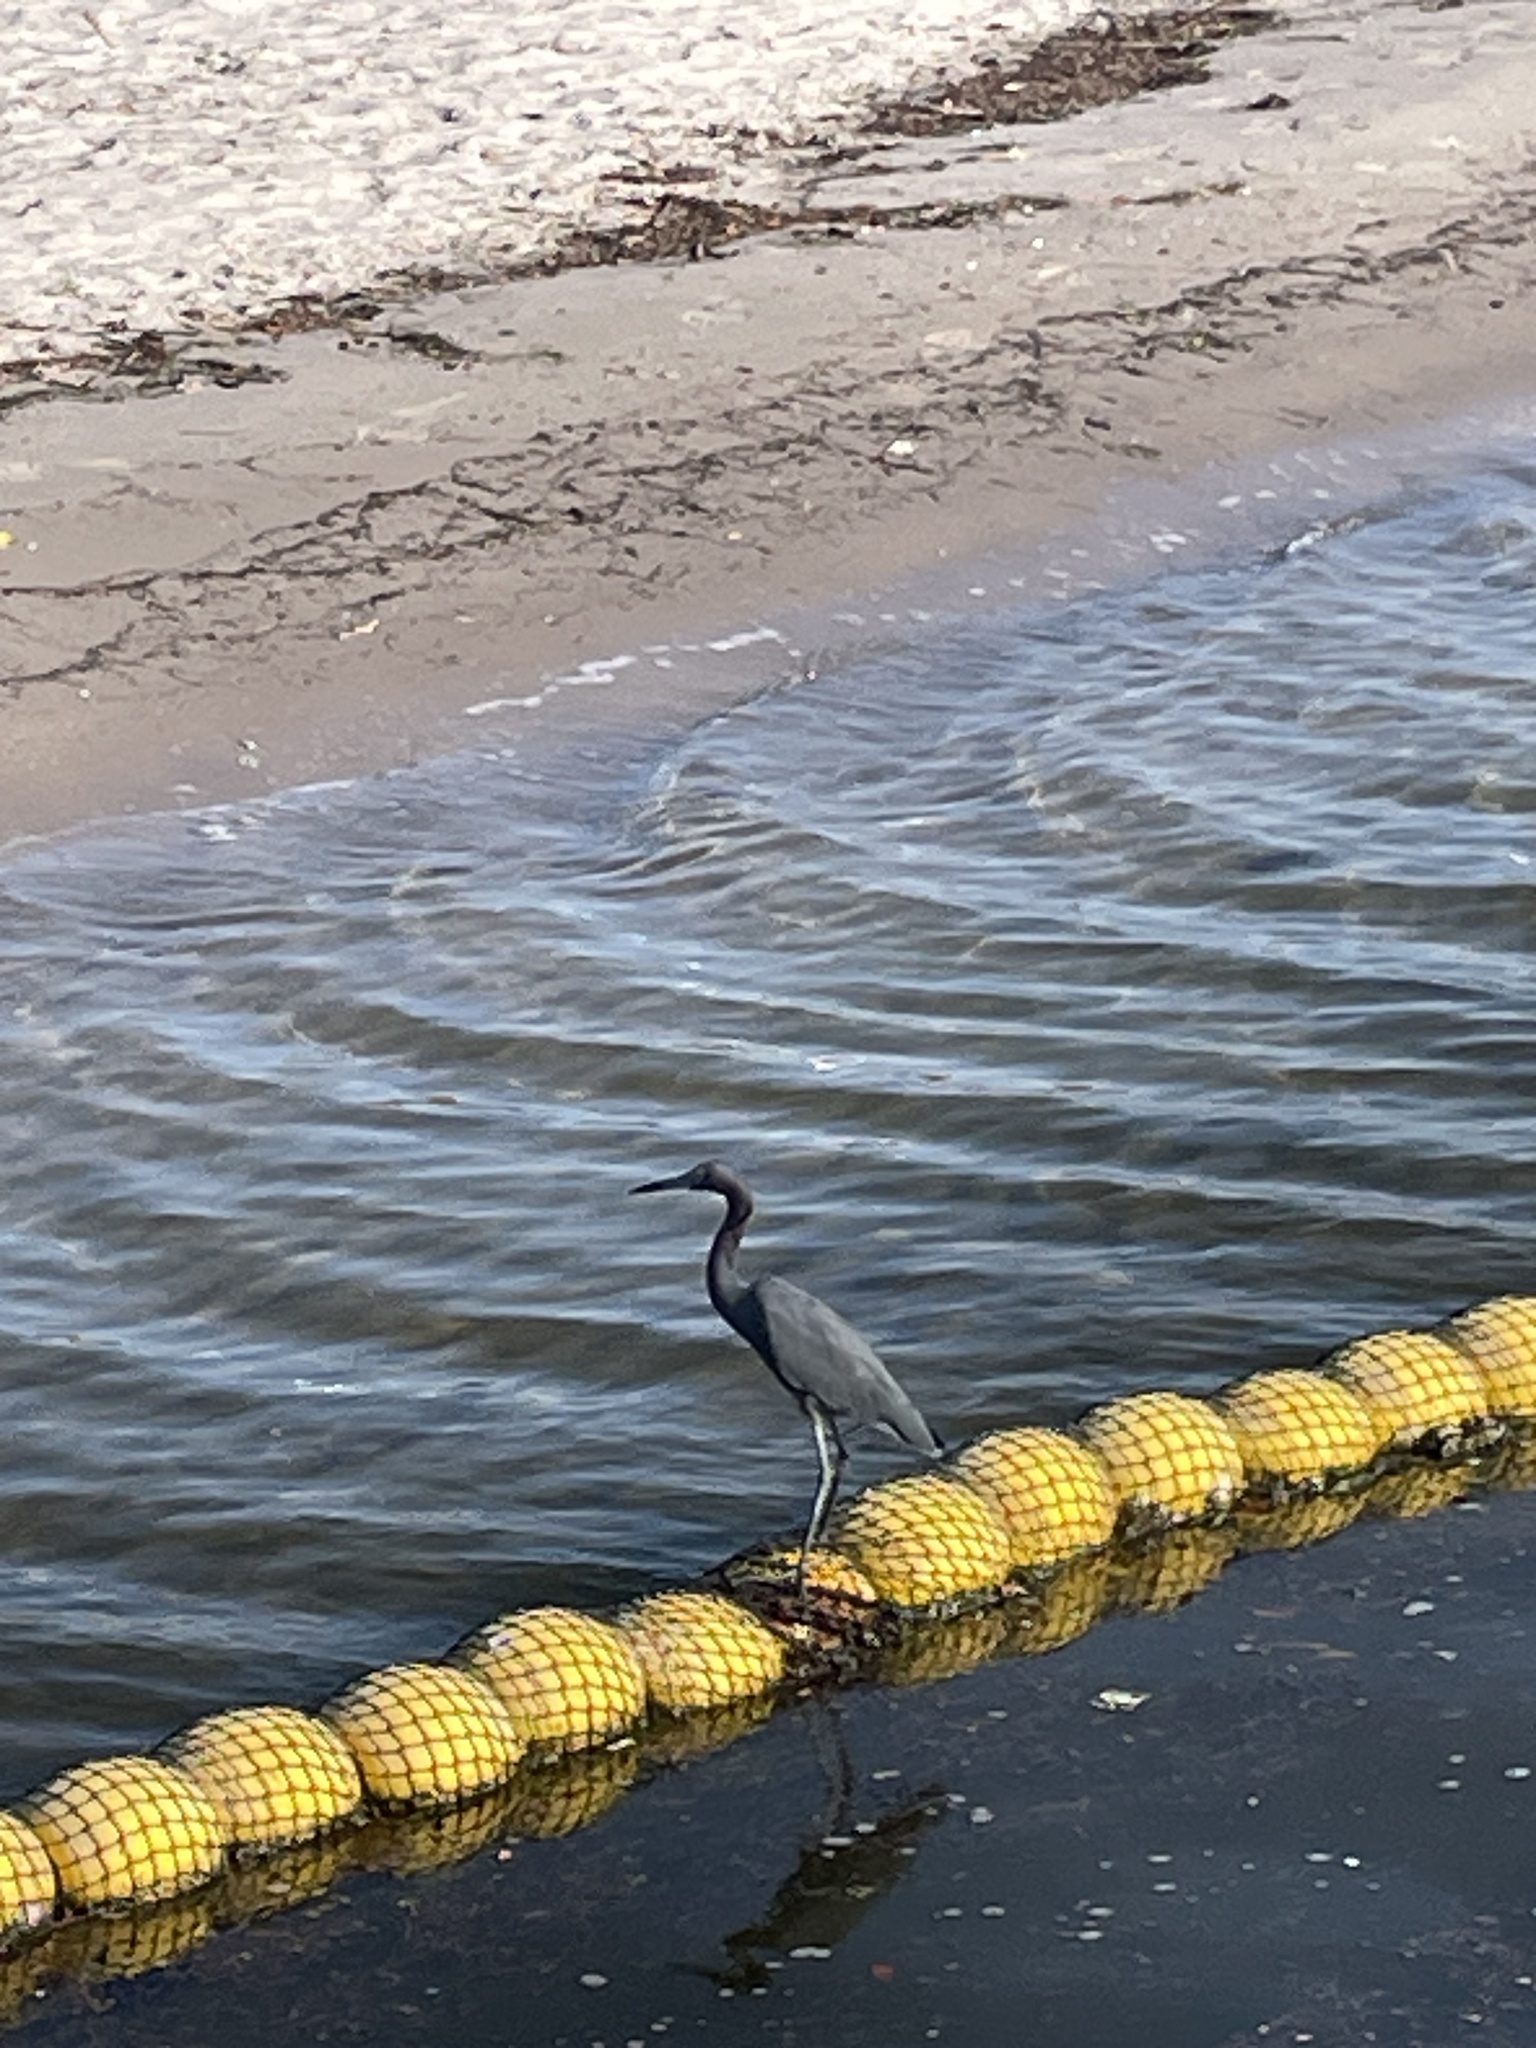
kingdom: Animalia
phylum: Chordata
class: Aves
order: Pelecaniformes
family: Ardeidae
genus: Egretta
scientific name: Egretta caerulea
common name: Little blue heron
